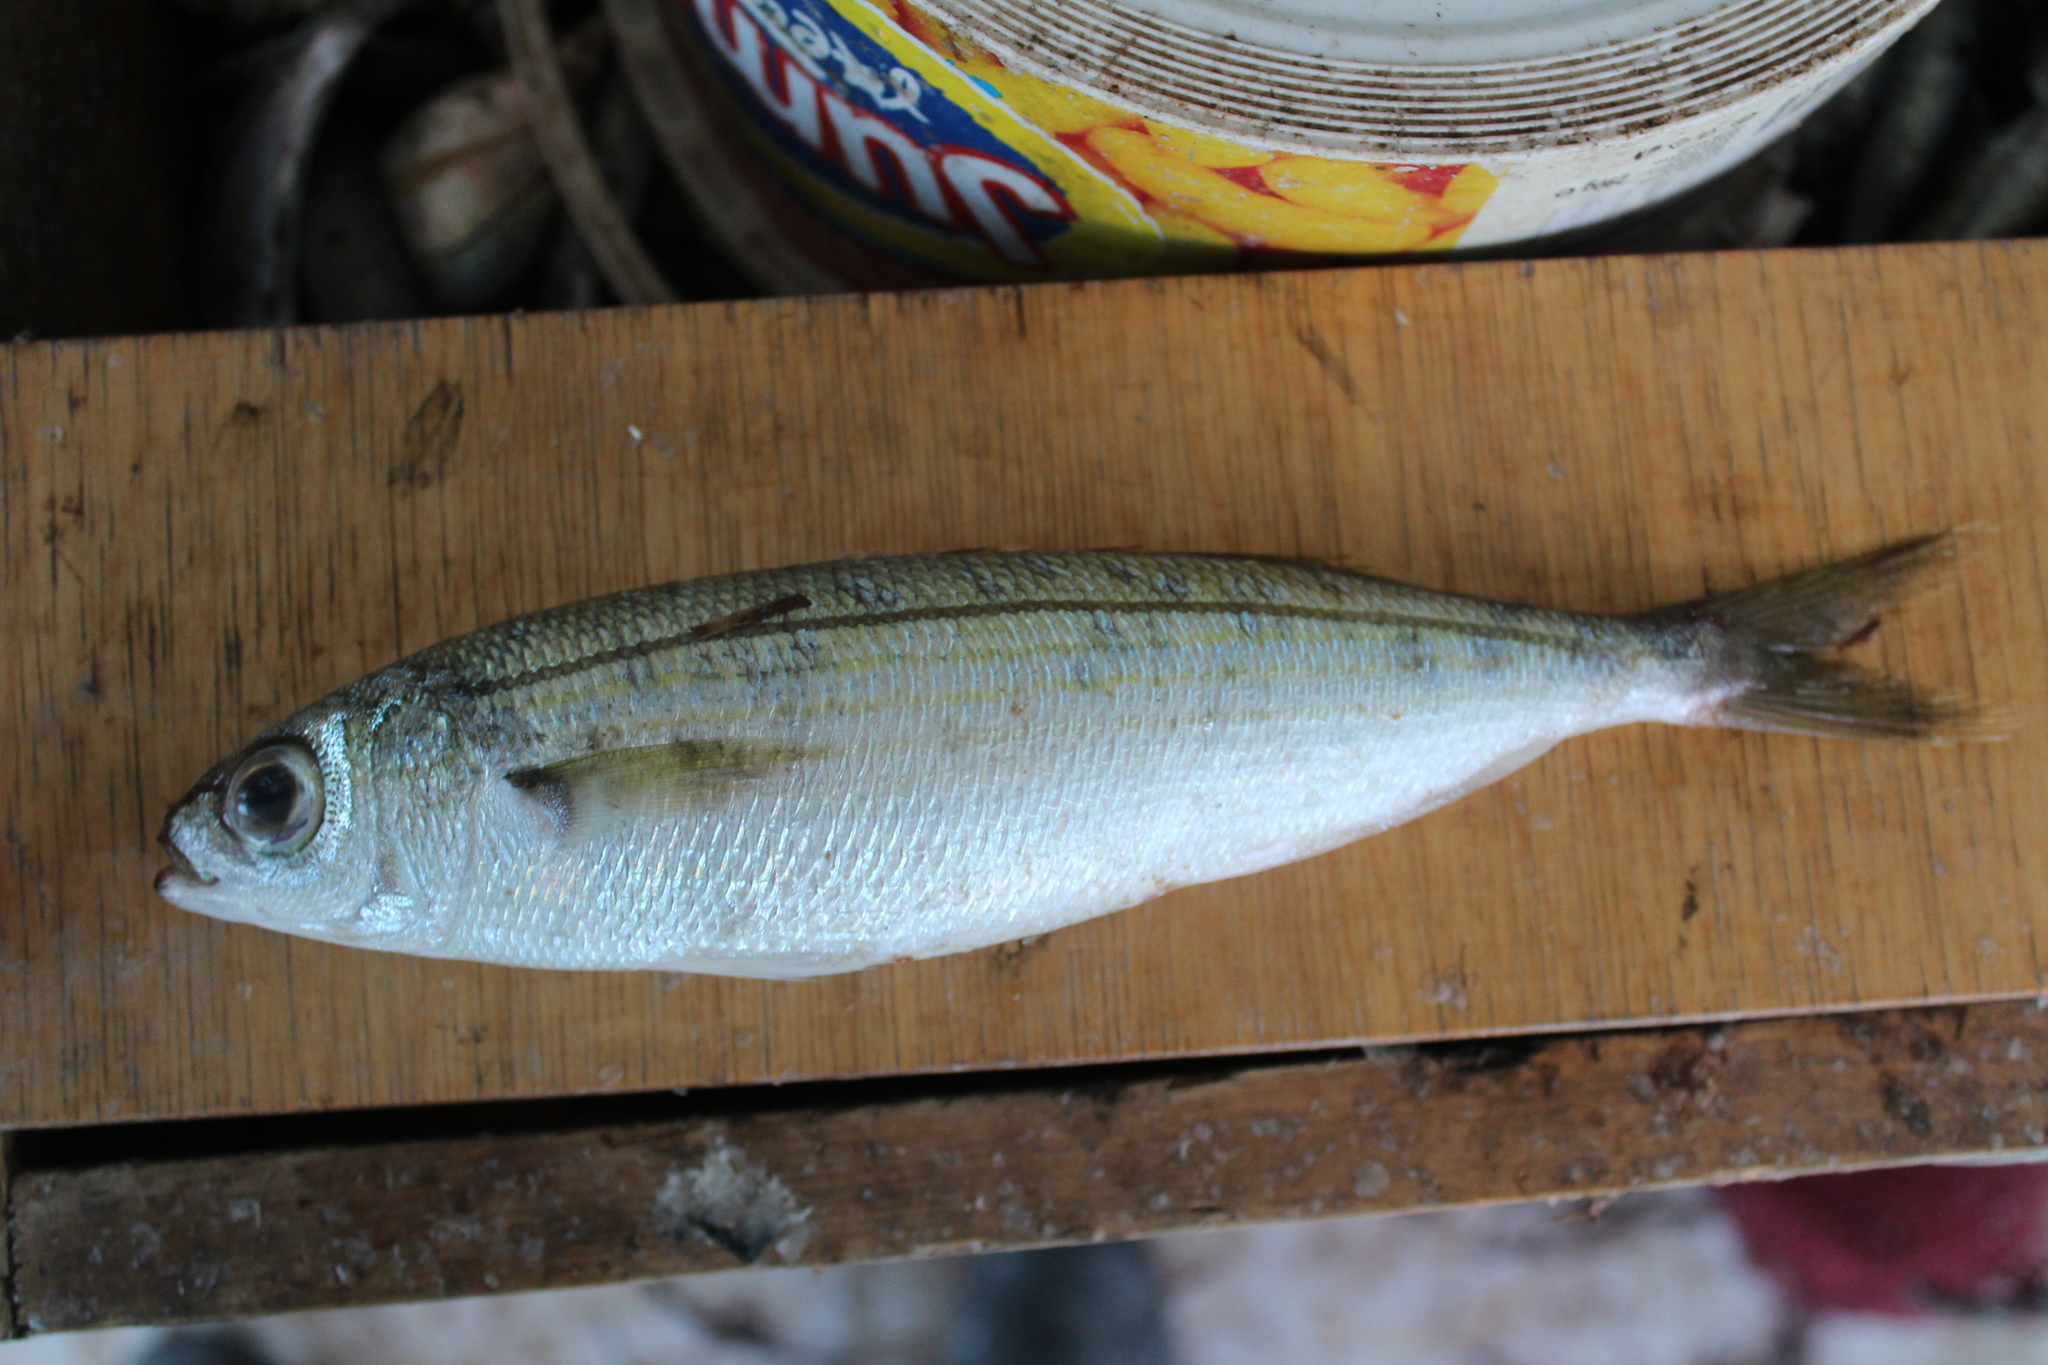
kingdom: Animalia
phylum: Chordata
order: Perciformes
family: Sparidae
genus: Boops
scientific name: Boops boops
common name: Bogue
